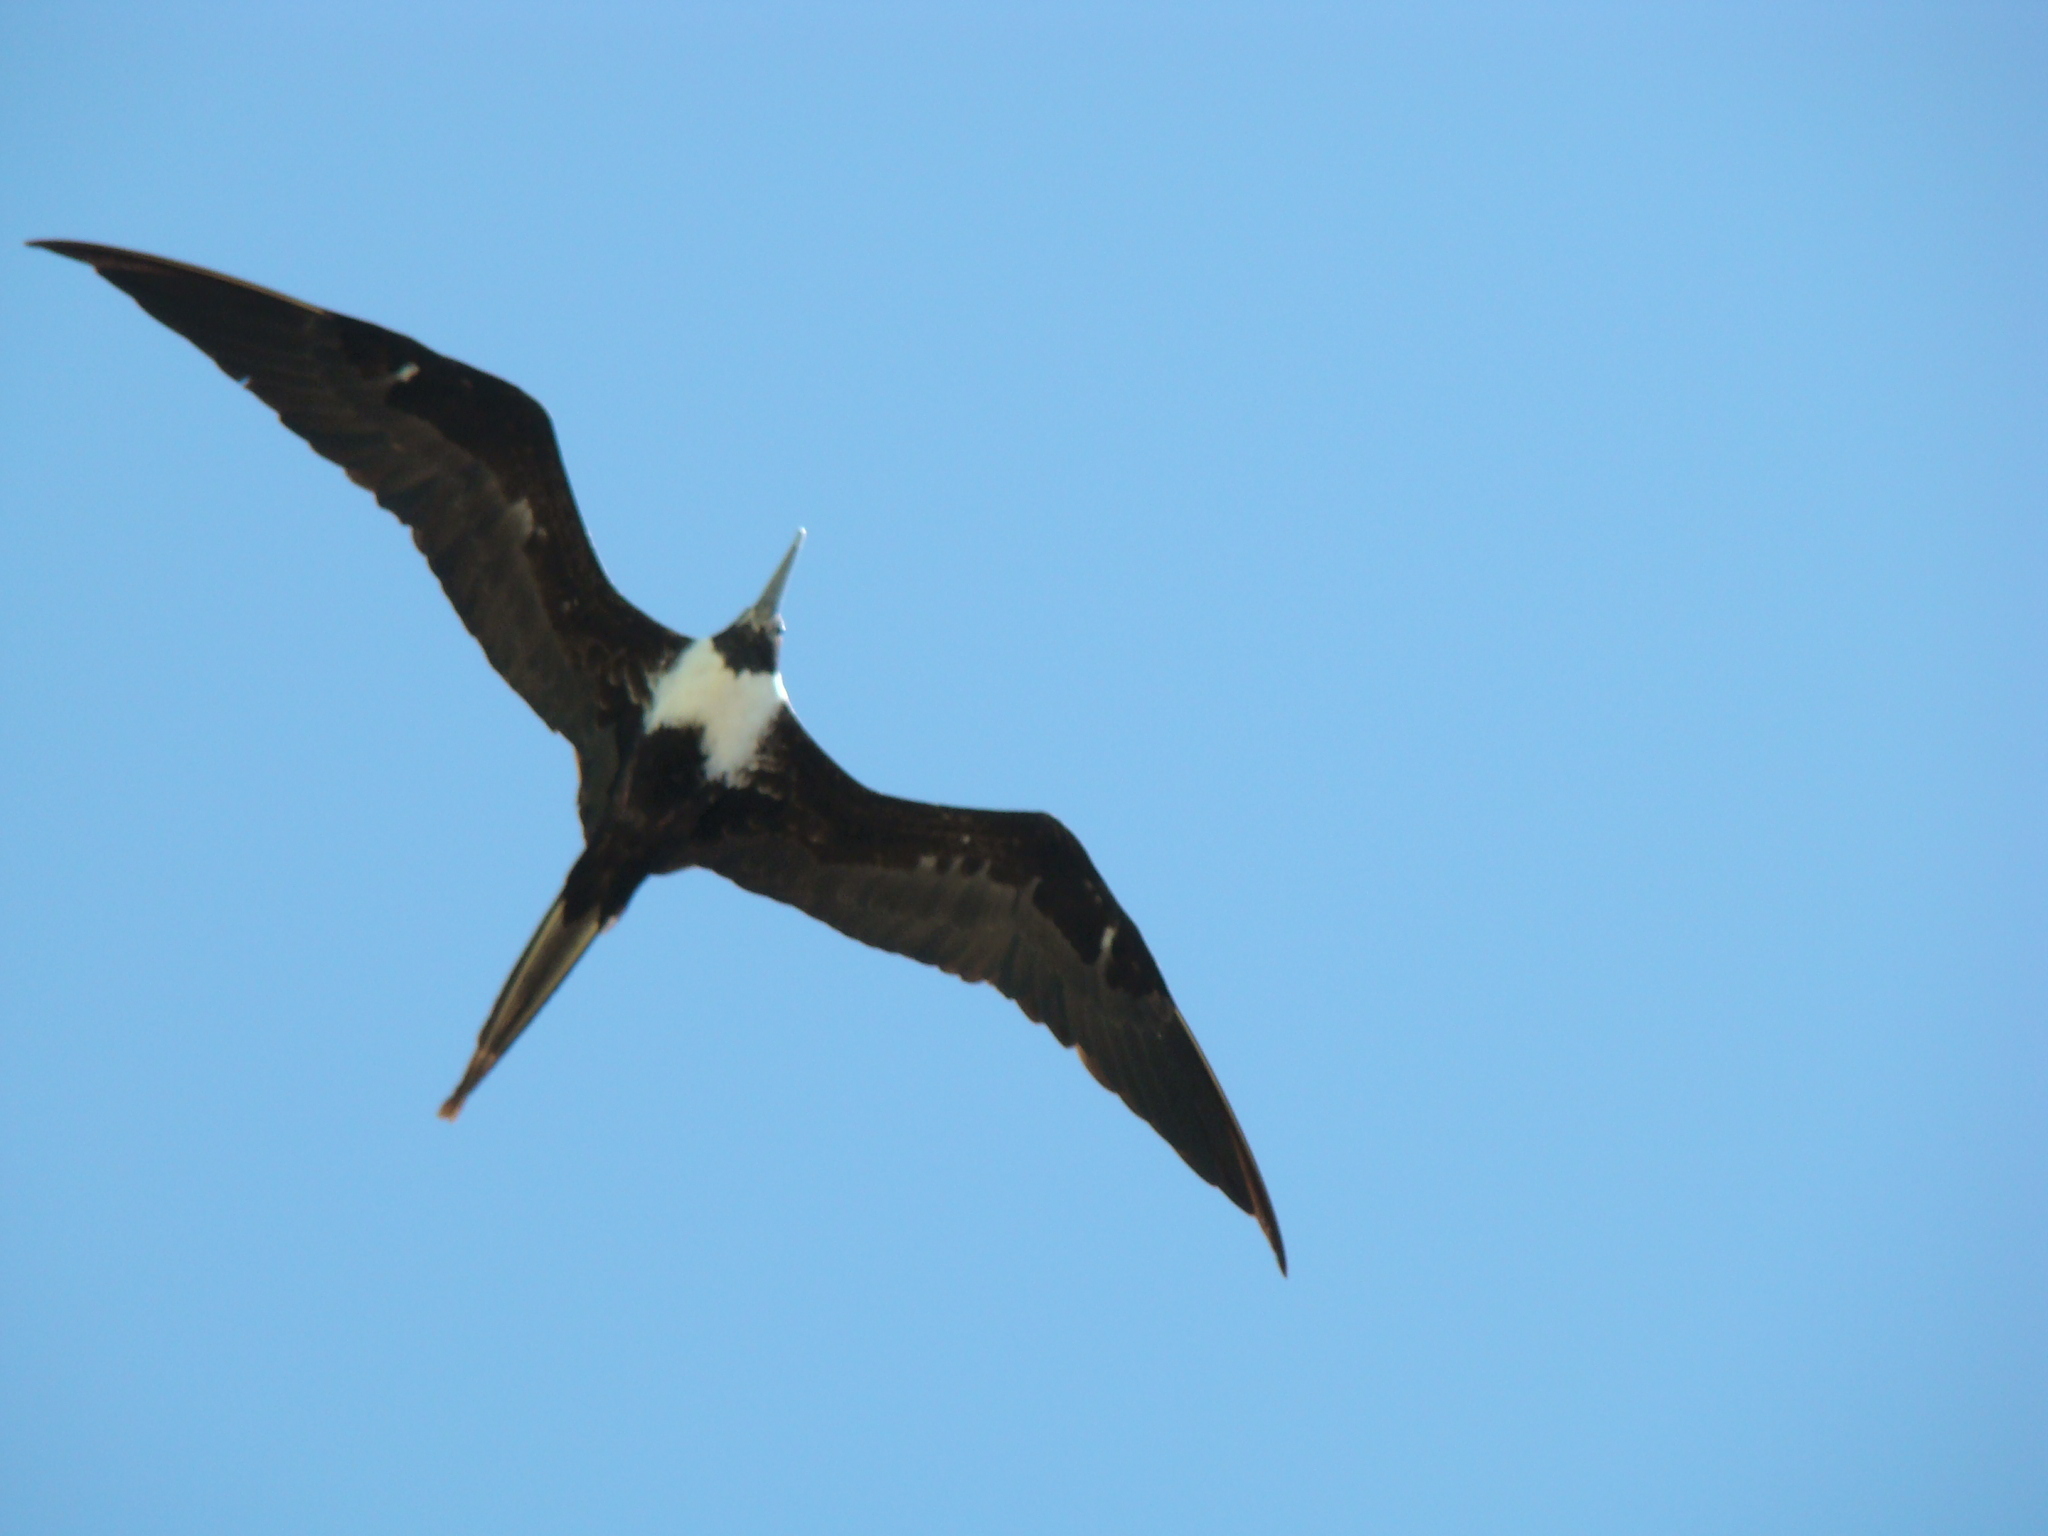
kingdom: Animalia
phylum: Chordata
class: Aves
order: Suliformes
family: Fregatidae
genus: Fregata
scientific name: Fregata magnificens
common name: Magnificent frigatebird
